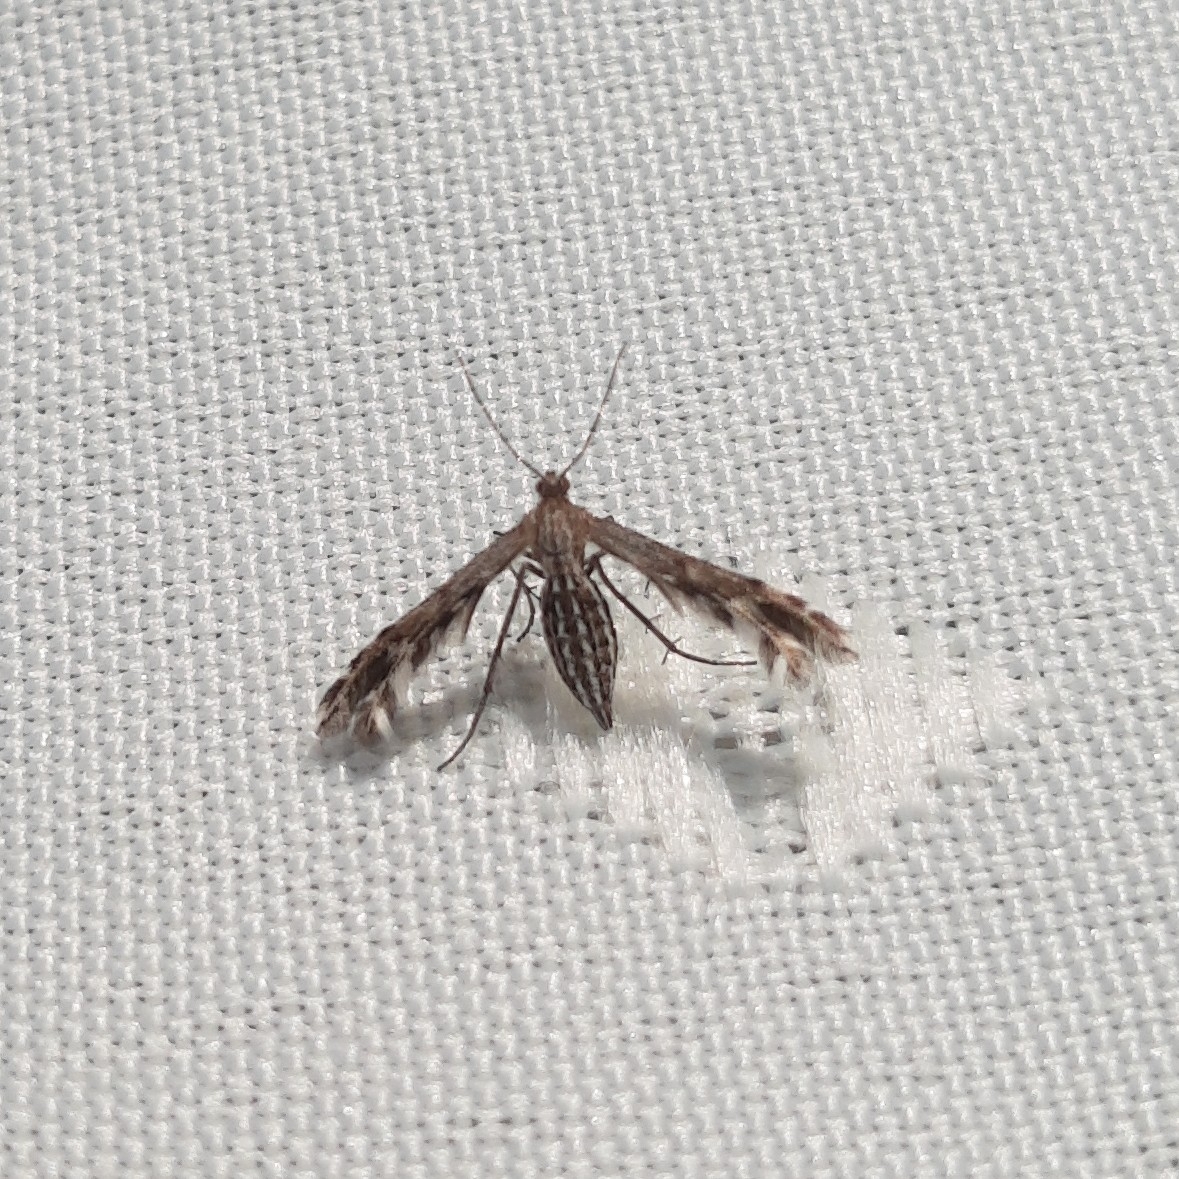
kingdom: Animalia
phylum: Arthropoda
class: Insecta
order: Lepidoptera
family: Pterophoridae
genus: Singularia
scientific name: Singularia alternaria
